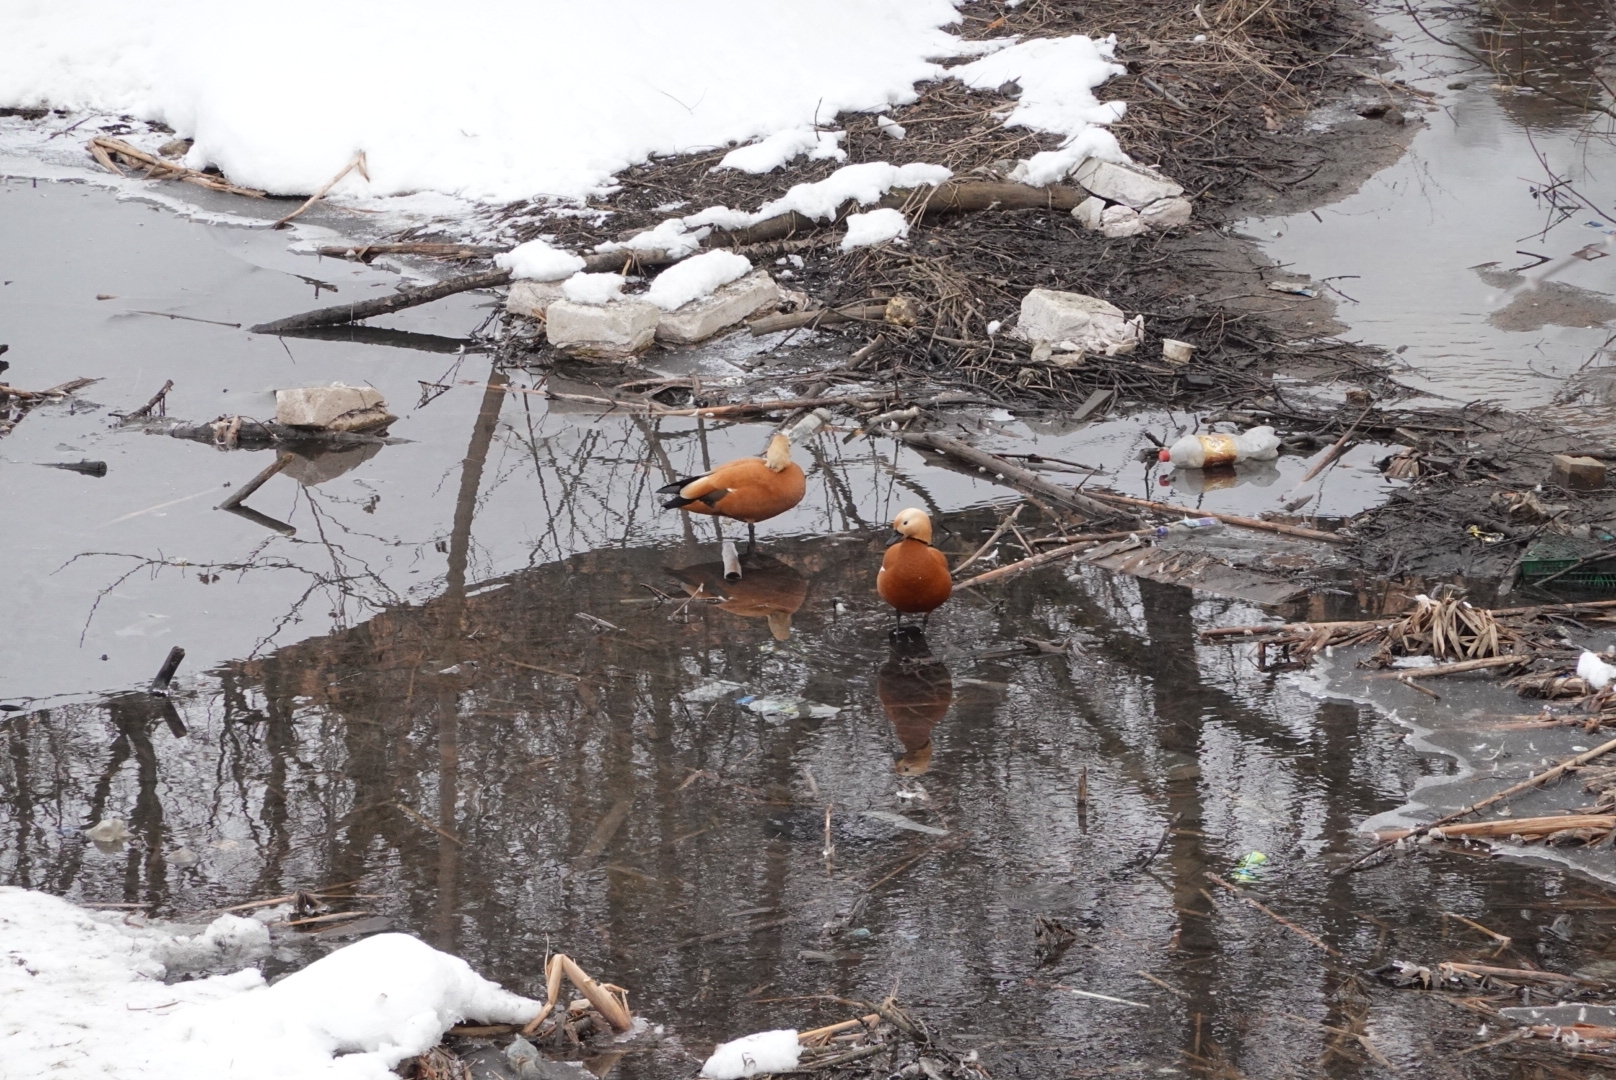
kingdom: Animalia
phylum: Chordata
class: Aves
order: Anseriformes
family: Anatidae
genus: Tadorna
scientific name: Tadorna ferruginea
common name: Ruddy shelduck
